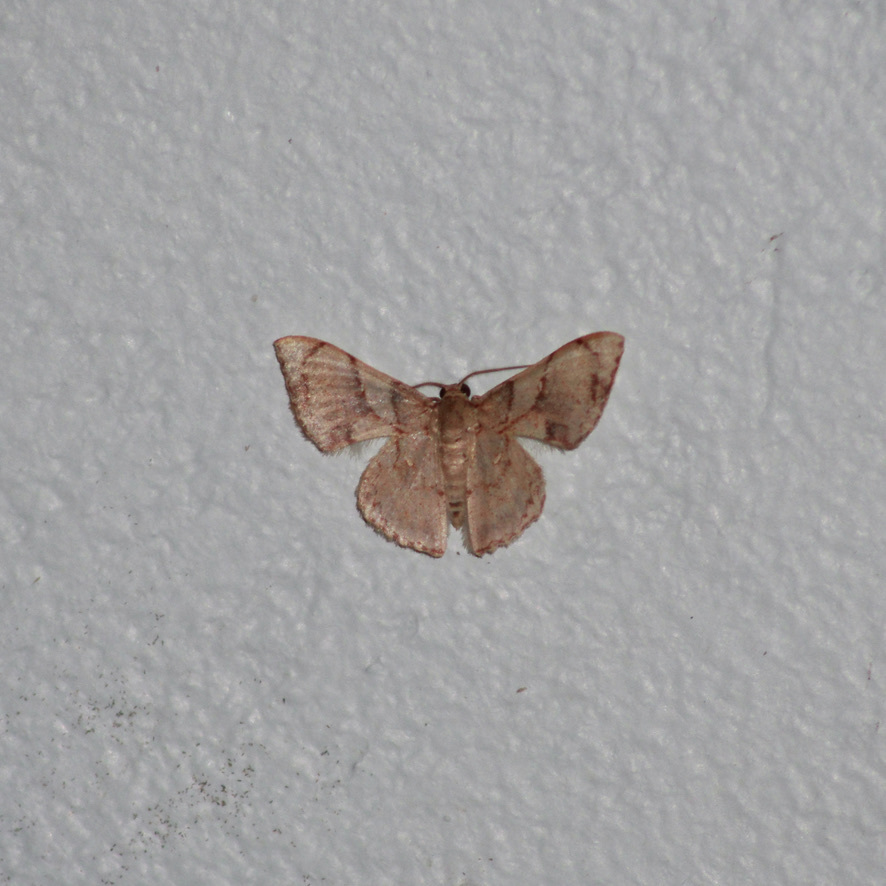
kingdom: Animalia
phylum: Arthropoda
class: Insecta
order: Lepidoptera
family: Geometridae
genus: Hemipterodes
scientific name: Hemipterodes subnigrata
